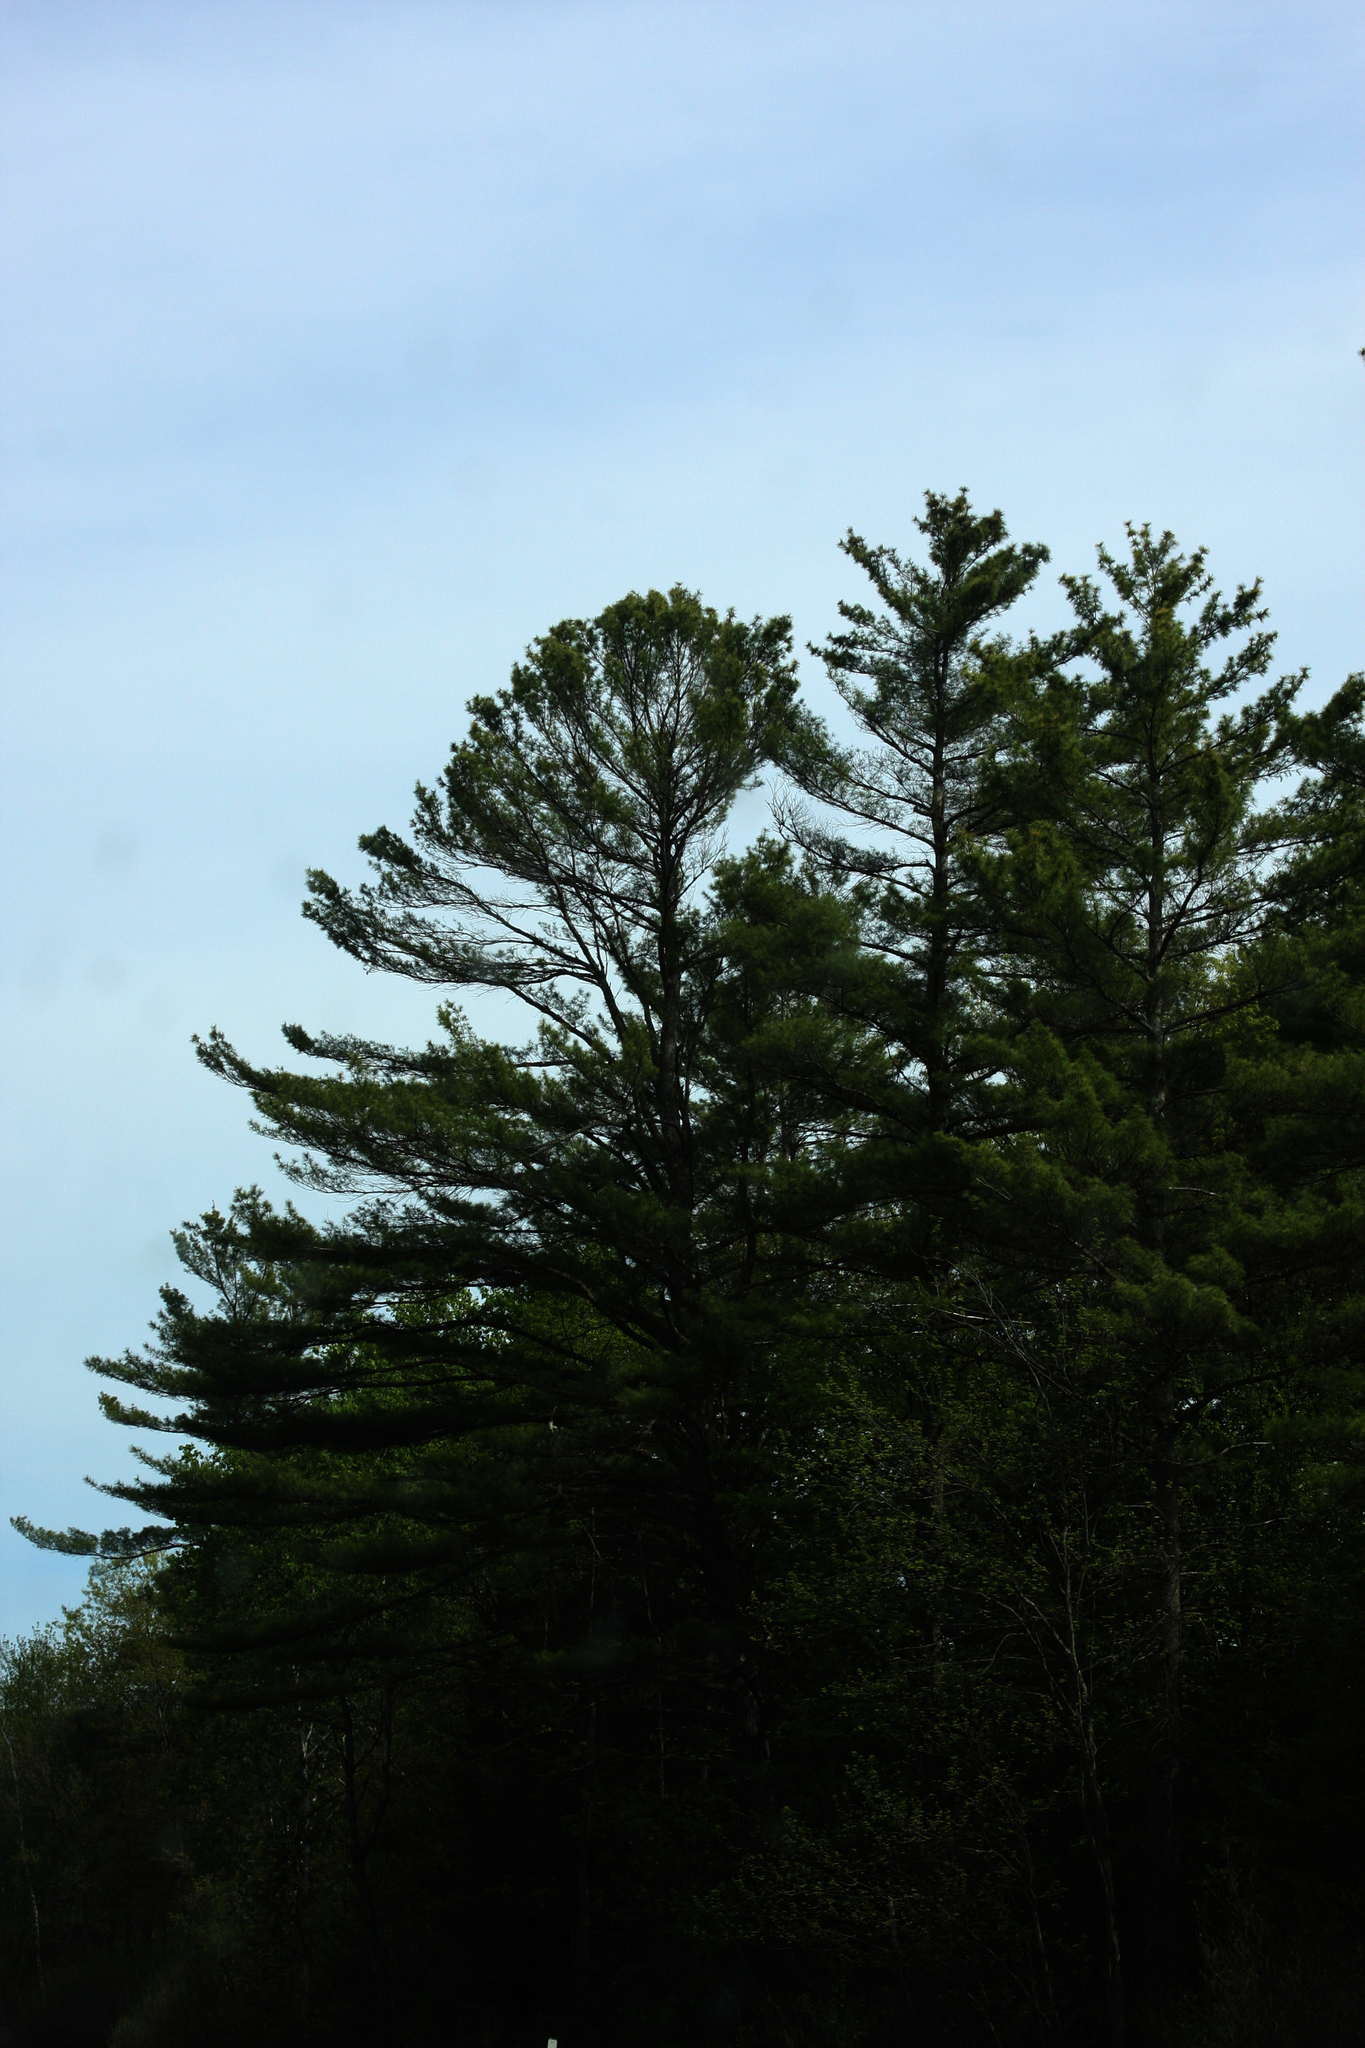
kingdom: Plantae
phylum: Tracheophyta
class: Pinopsida
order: Pinales
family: Pinaceae
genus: Pinus
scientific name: Pinus strobus
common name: Weymouth pine
